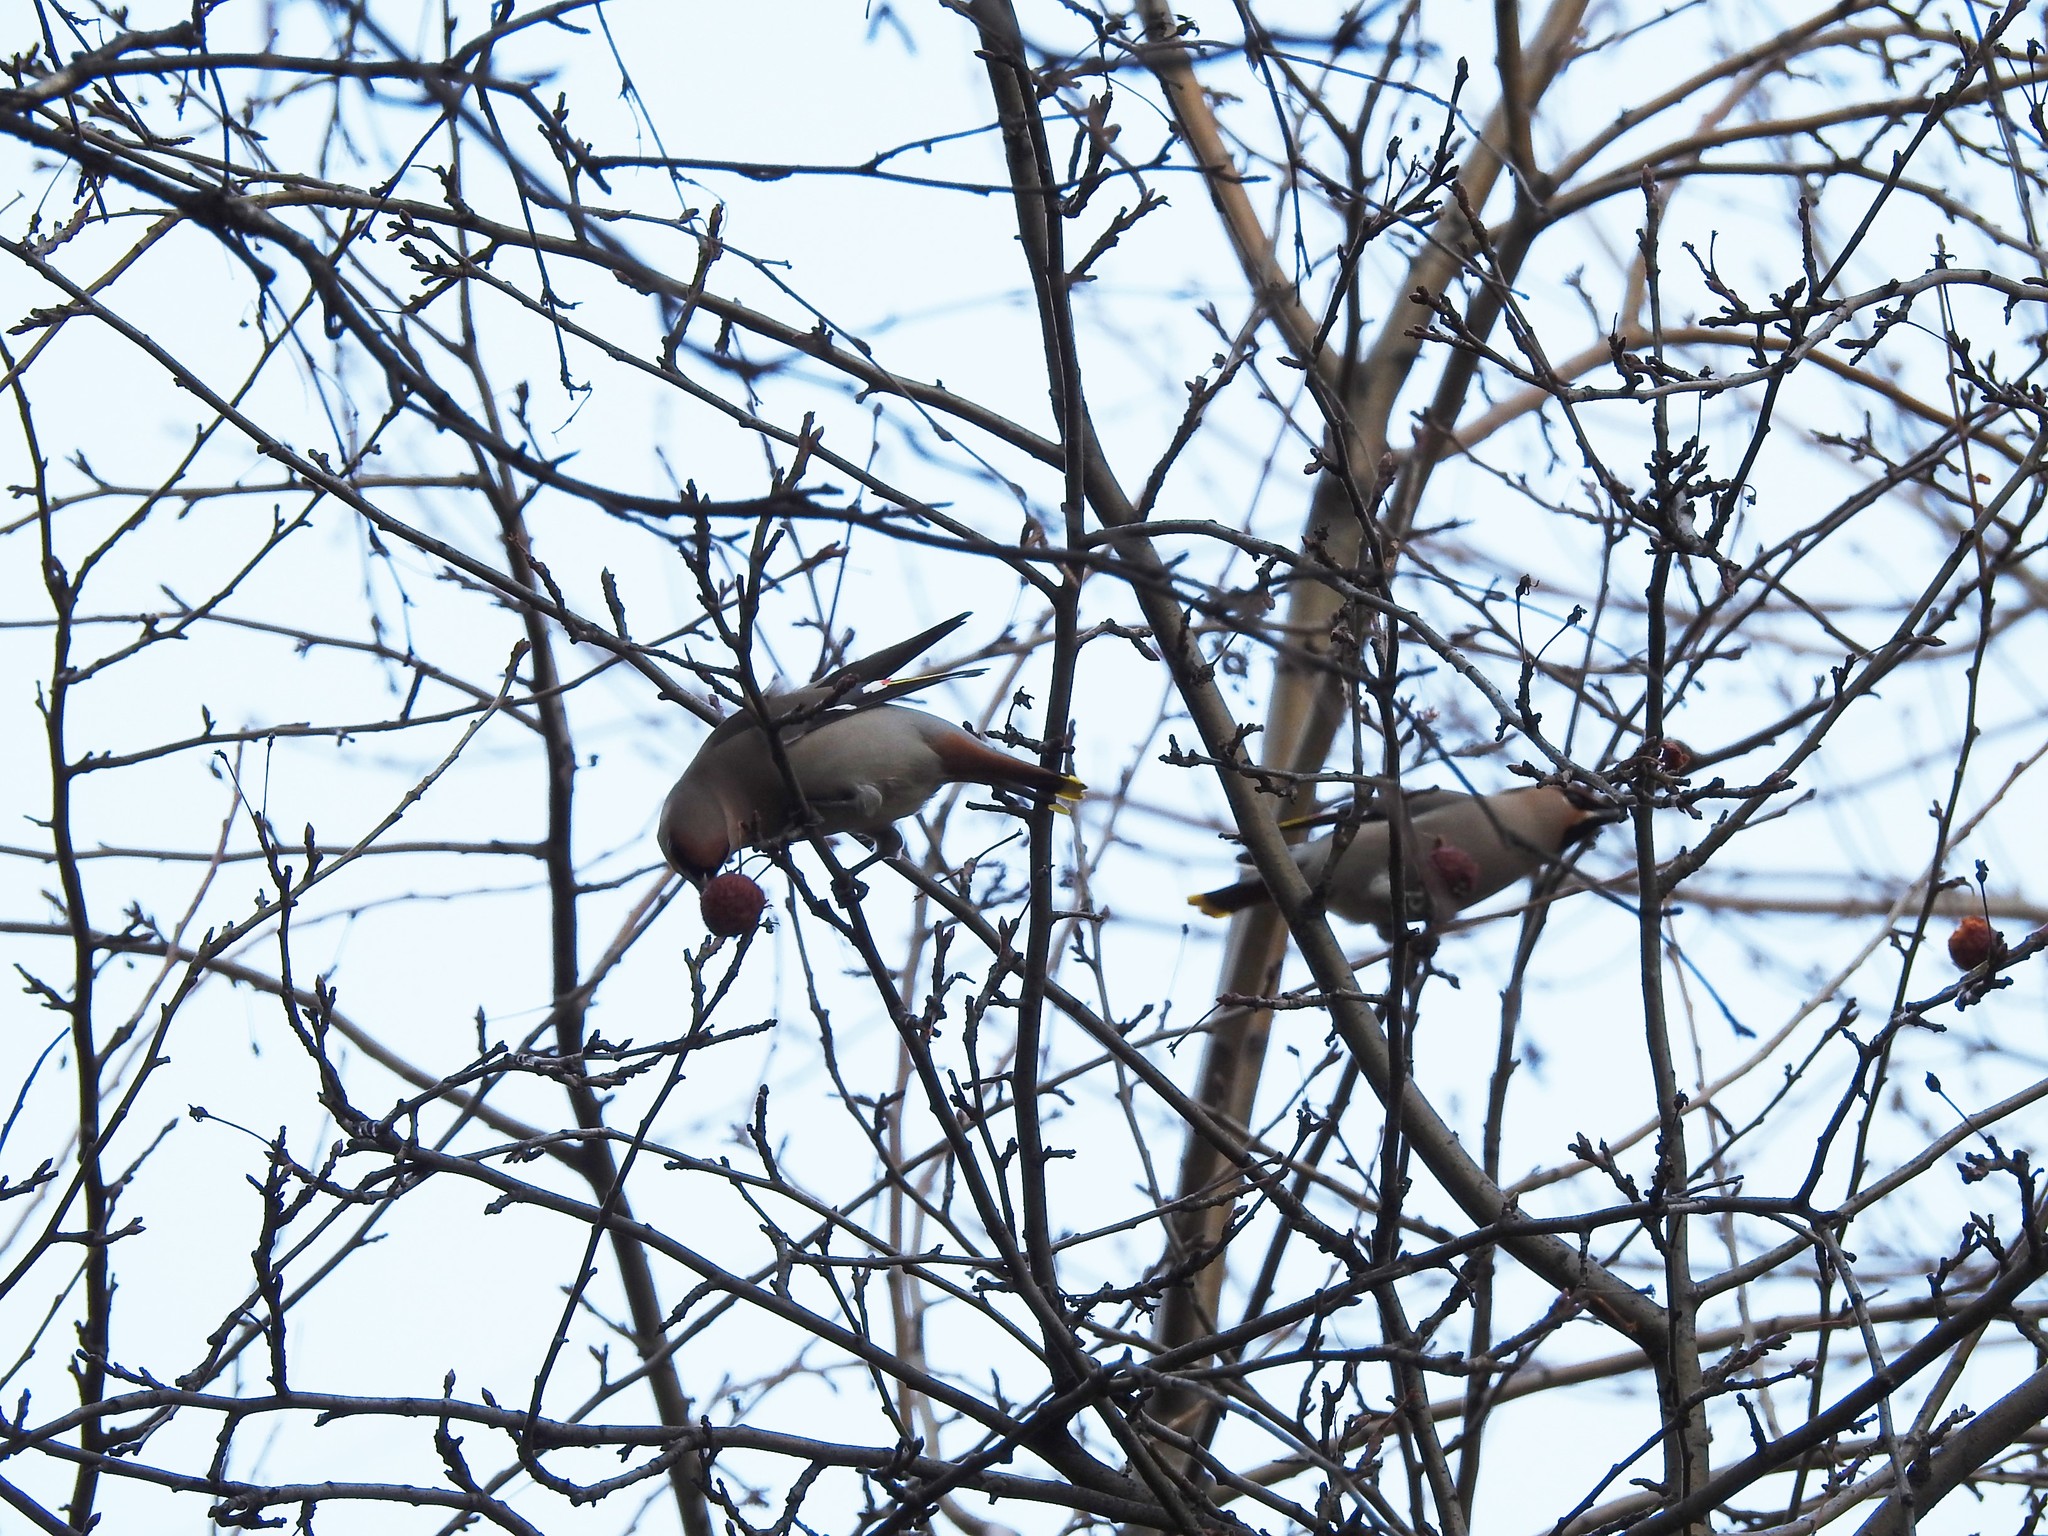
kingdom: Animalia
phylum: Chordata
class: Aves
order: Passeriformes
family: Bombycillidae
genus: Bombycilla
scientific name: Bombycilla garrulus
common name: Bohemian waxwing
